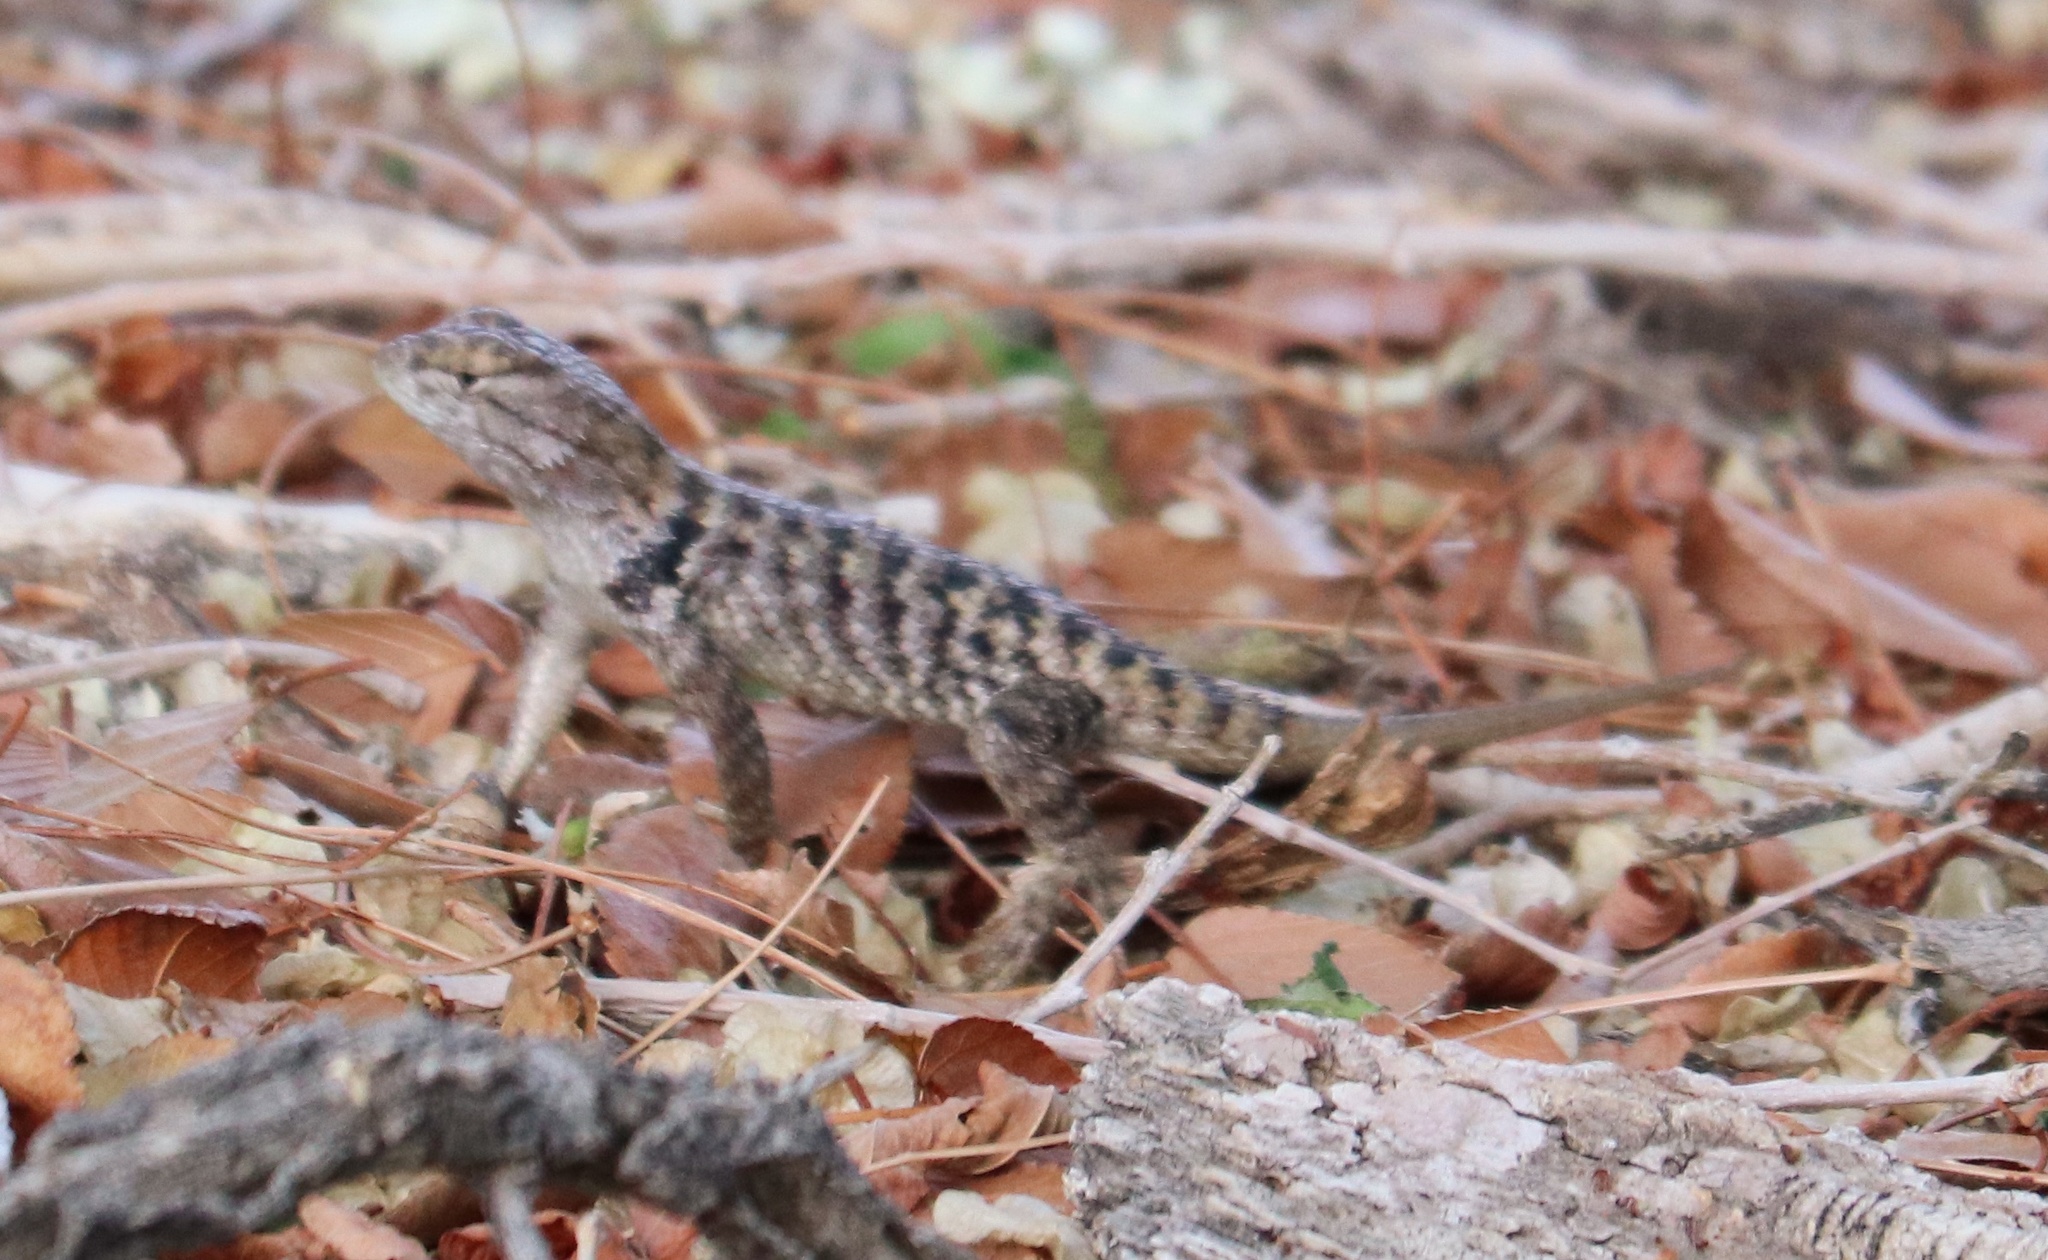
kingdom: Animalia
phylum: Chordata
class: Squamata
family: Phrynosomatidae
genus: Sceloporus
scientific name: Sceloporus uniformis
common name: Yellow-backed spiny lizard
